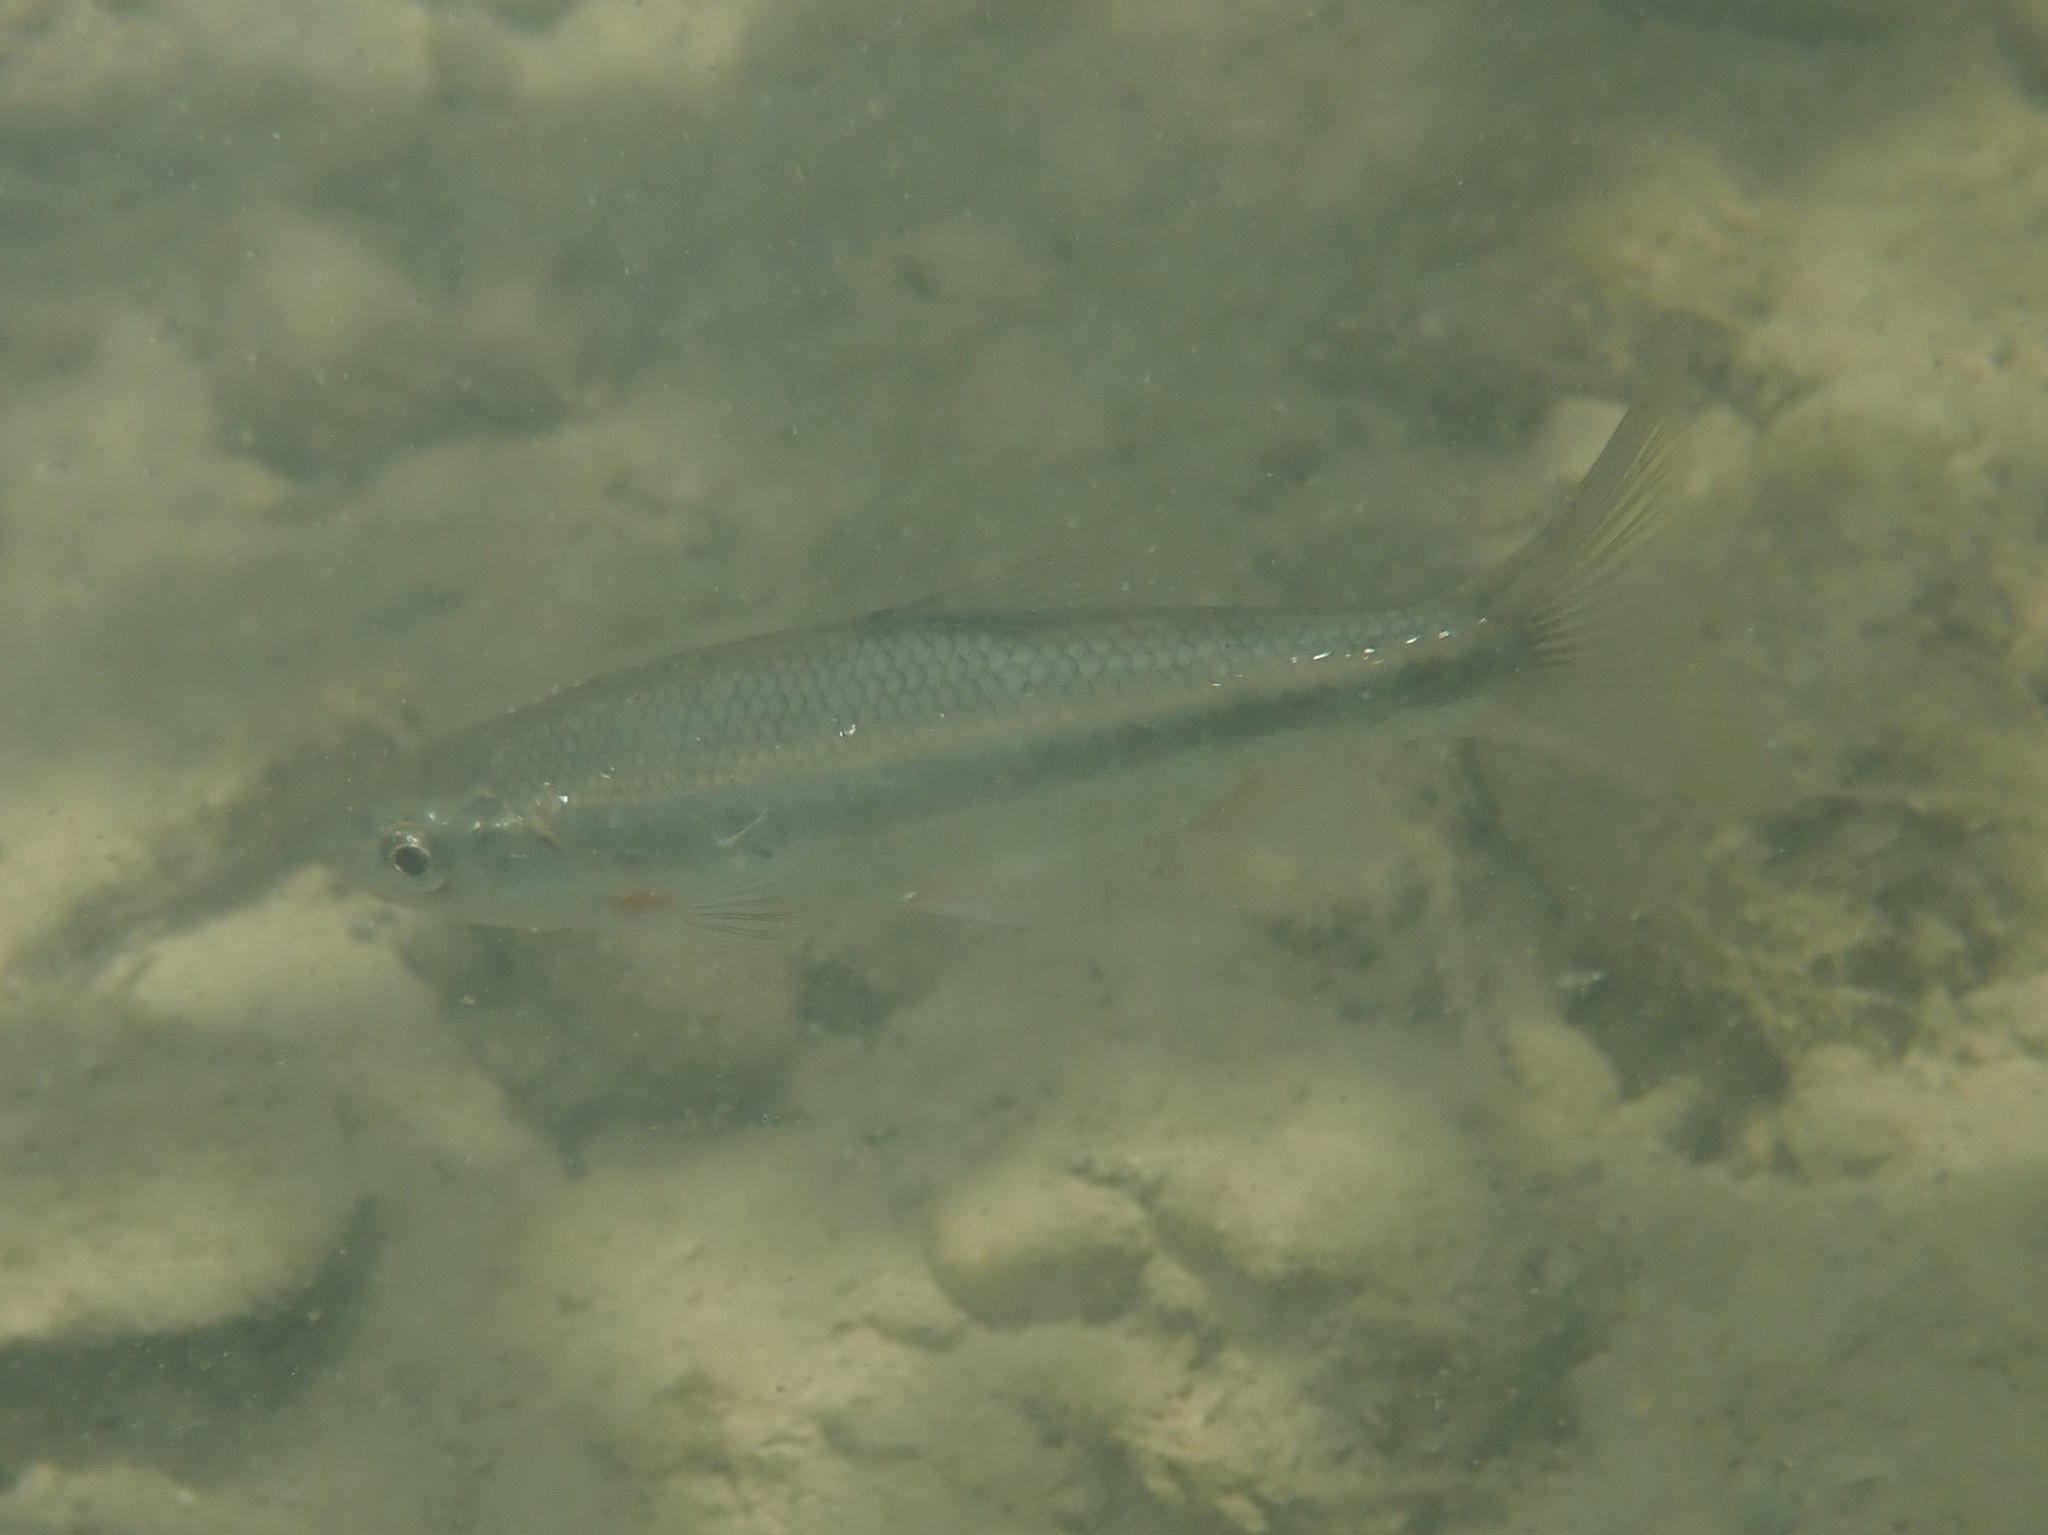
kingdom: Animalia
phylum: Chordata
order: Cypriniformes
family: Cyprinidae
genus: Telestes
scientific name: Telestes muticellus
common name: Italian riffle dace
